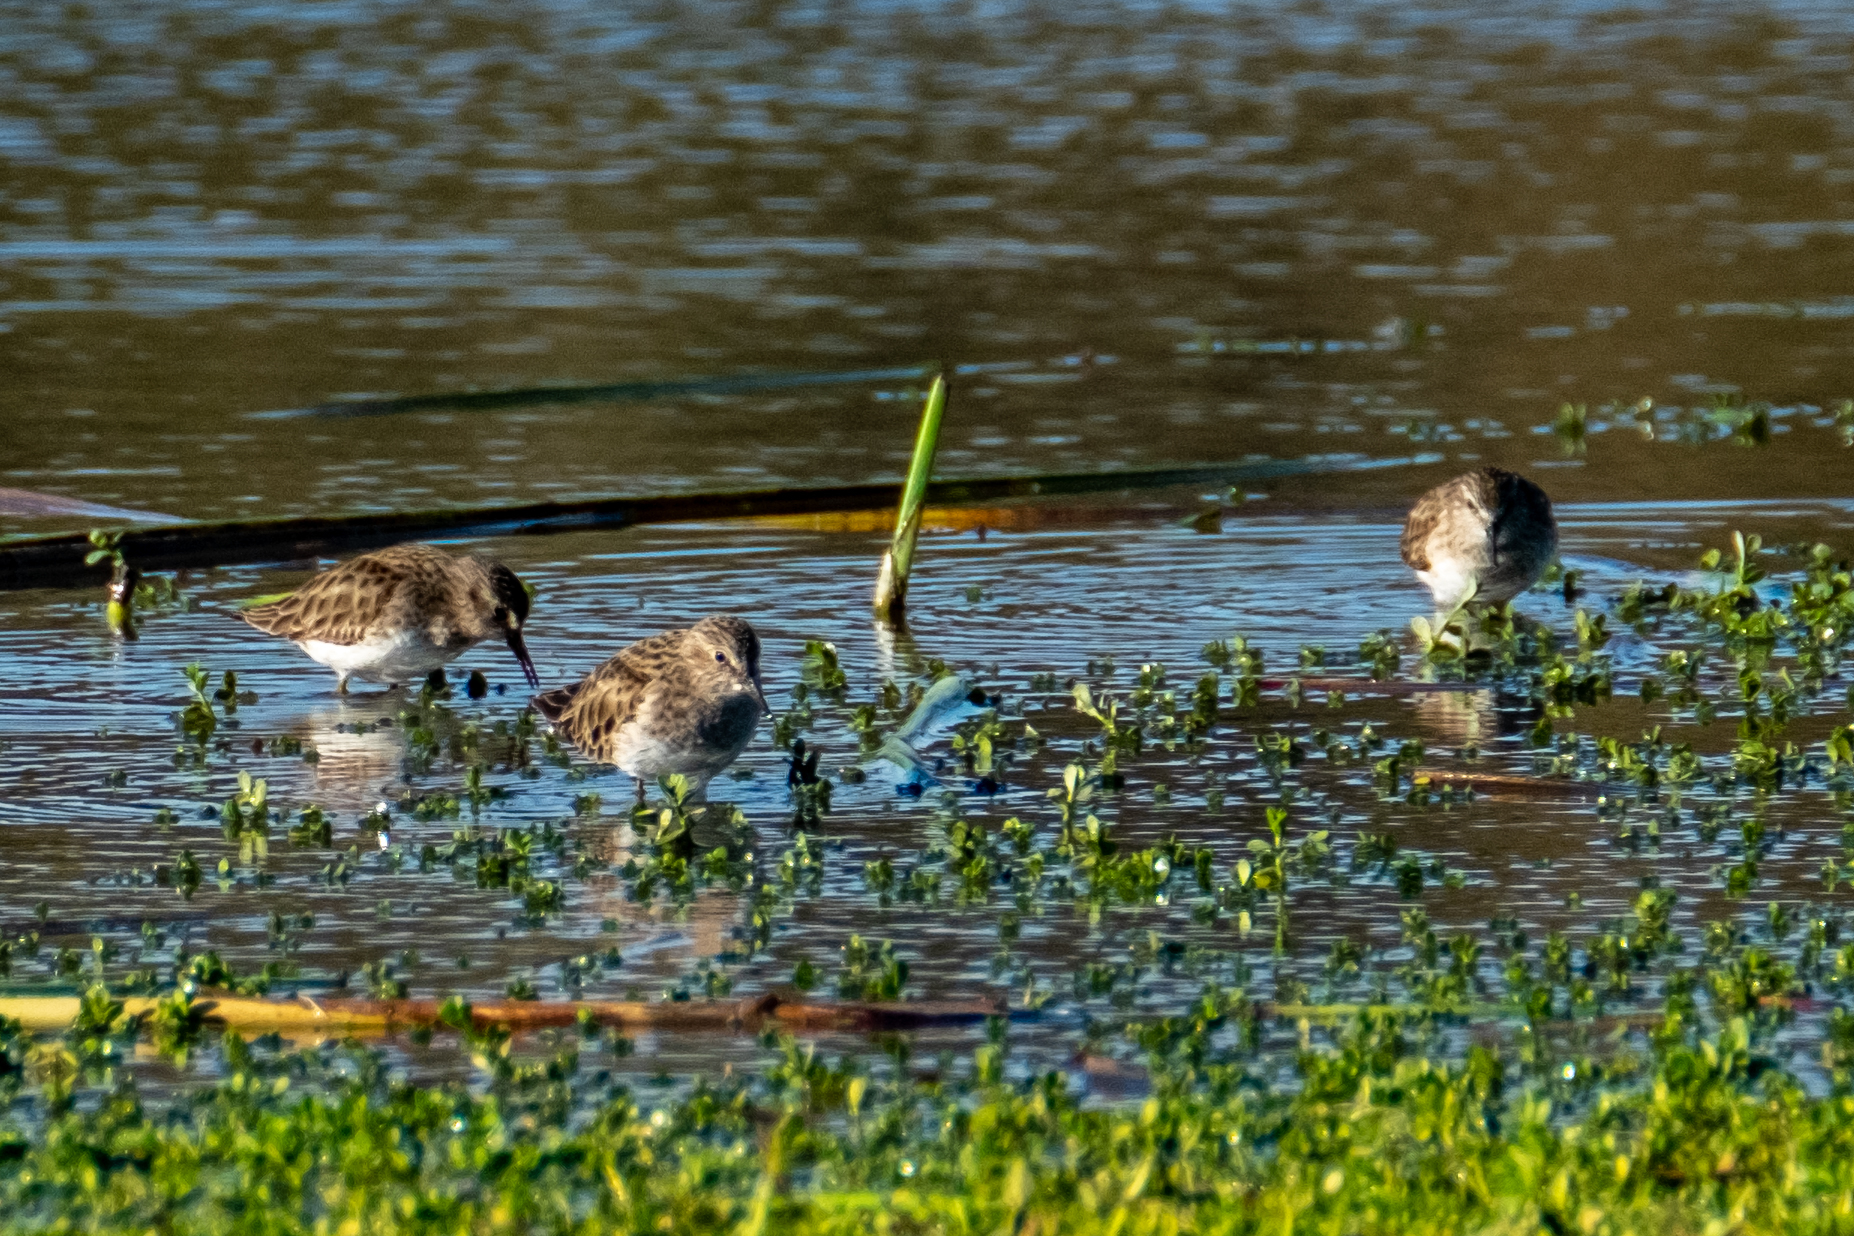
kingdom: Animalia
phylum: Chordata
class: Aves
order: Charadriiformes
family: Scolopacidae
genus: Calidris
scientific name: Calidris minutilla
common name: Least sandpiper
